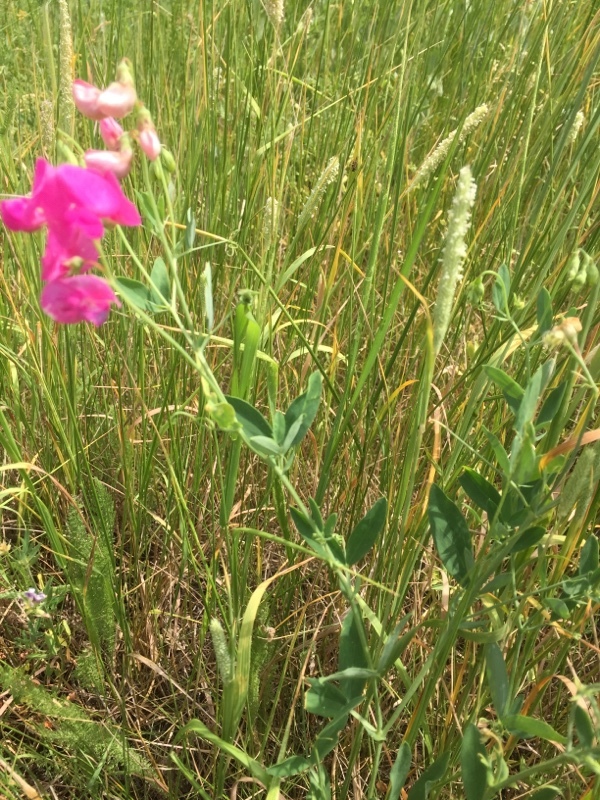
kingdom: Plantae
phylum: Tracheophyta
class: Magnoliopsida
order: Fabales
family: Fabaceae
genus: Lathyrus
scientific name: Lathyrus tuberosus
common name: Tuberous pea
